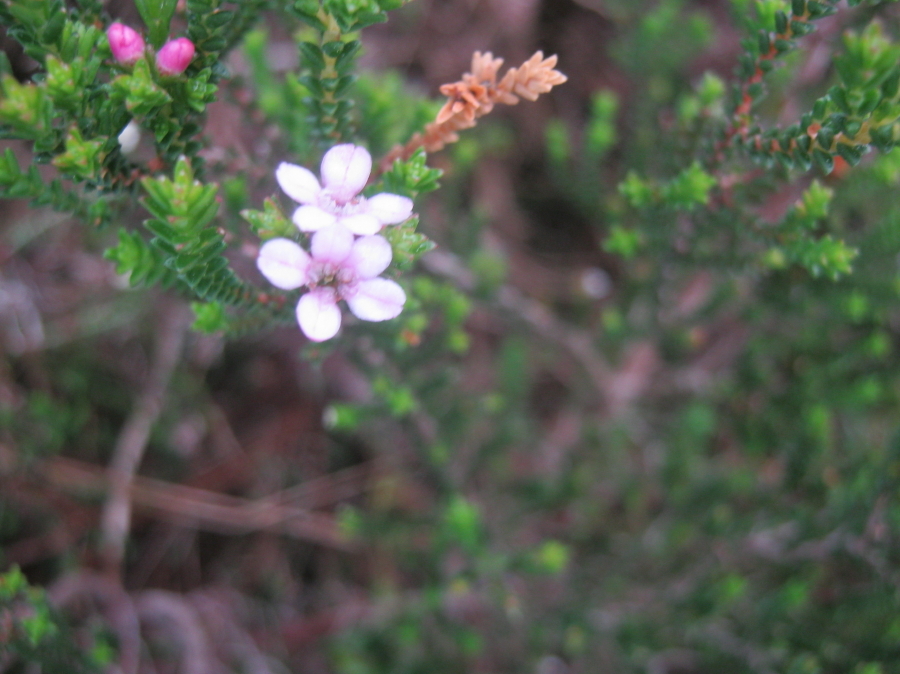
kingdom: Plantae
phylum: Tracheophyta
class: Magnoliopsida
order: Sapindales
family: Rutaceae
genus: Euchaetis
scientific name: Euchaetis albertiniana
